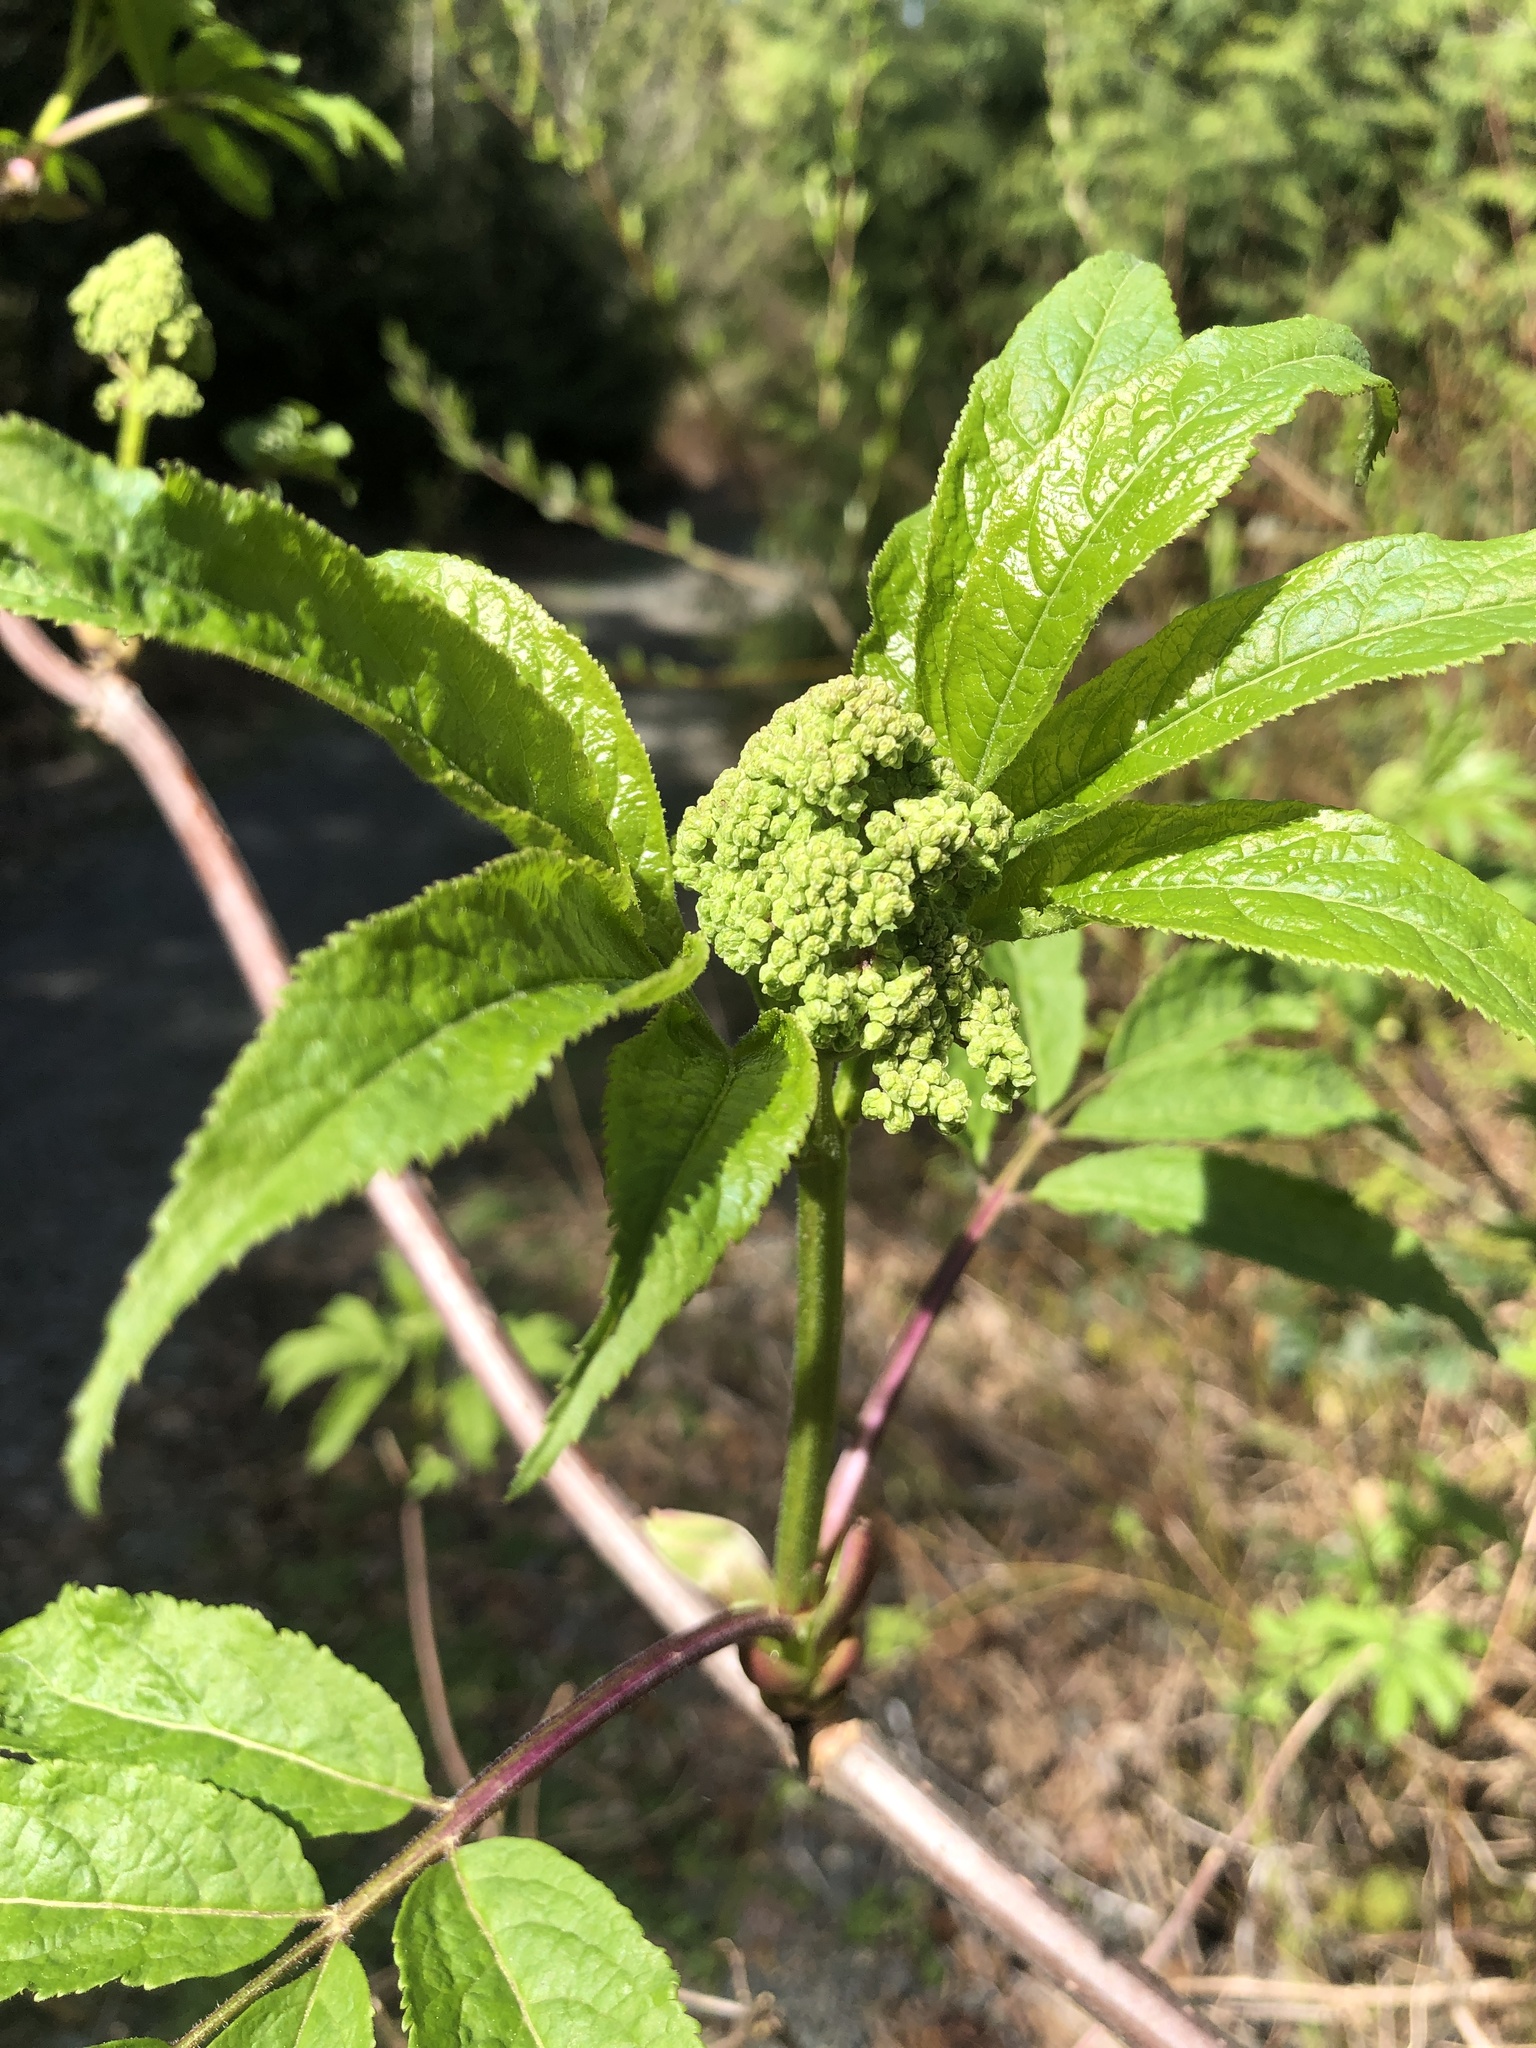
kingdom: Plantae
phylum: Tracheophyta
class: Magnoliopsida
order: Dipsacales
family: Viburnaceae
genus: Sambucus
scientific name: Sambucus racemosa
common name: Red-berried elder
